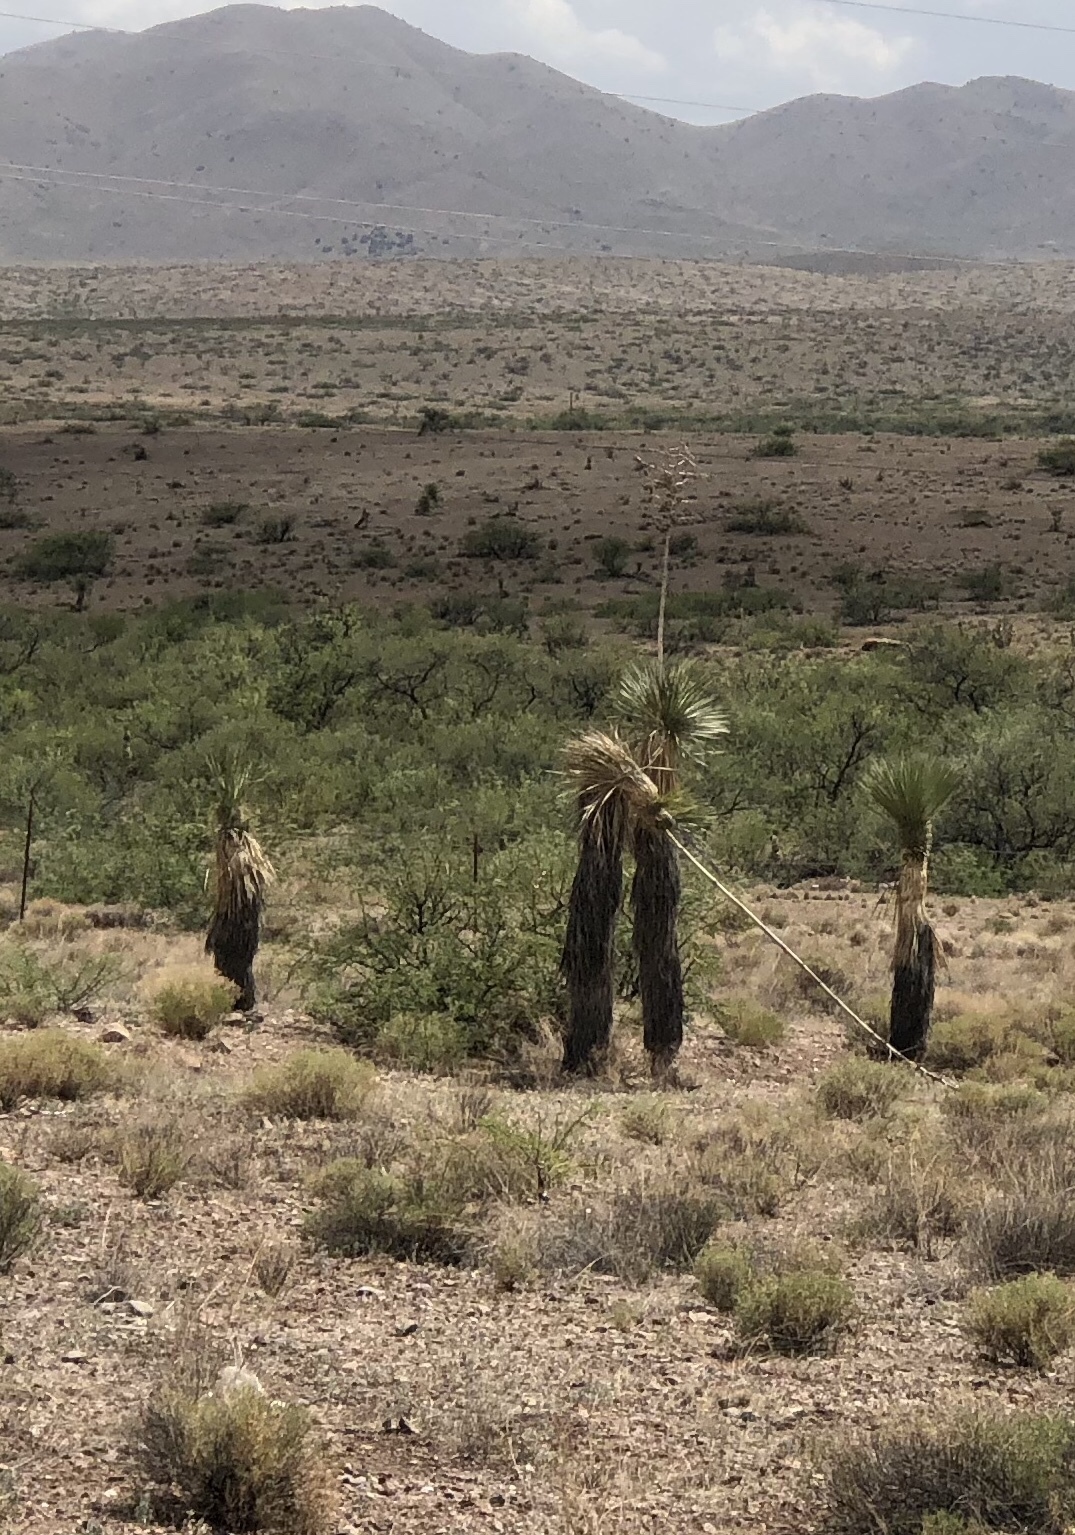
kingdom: Plantae
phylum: Tracheophyta
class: Liliopsida
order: Asparagales
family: Asparagaceae
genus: Yucca
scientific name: Yucca elata
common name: Palmella
